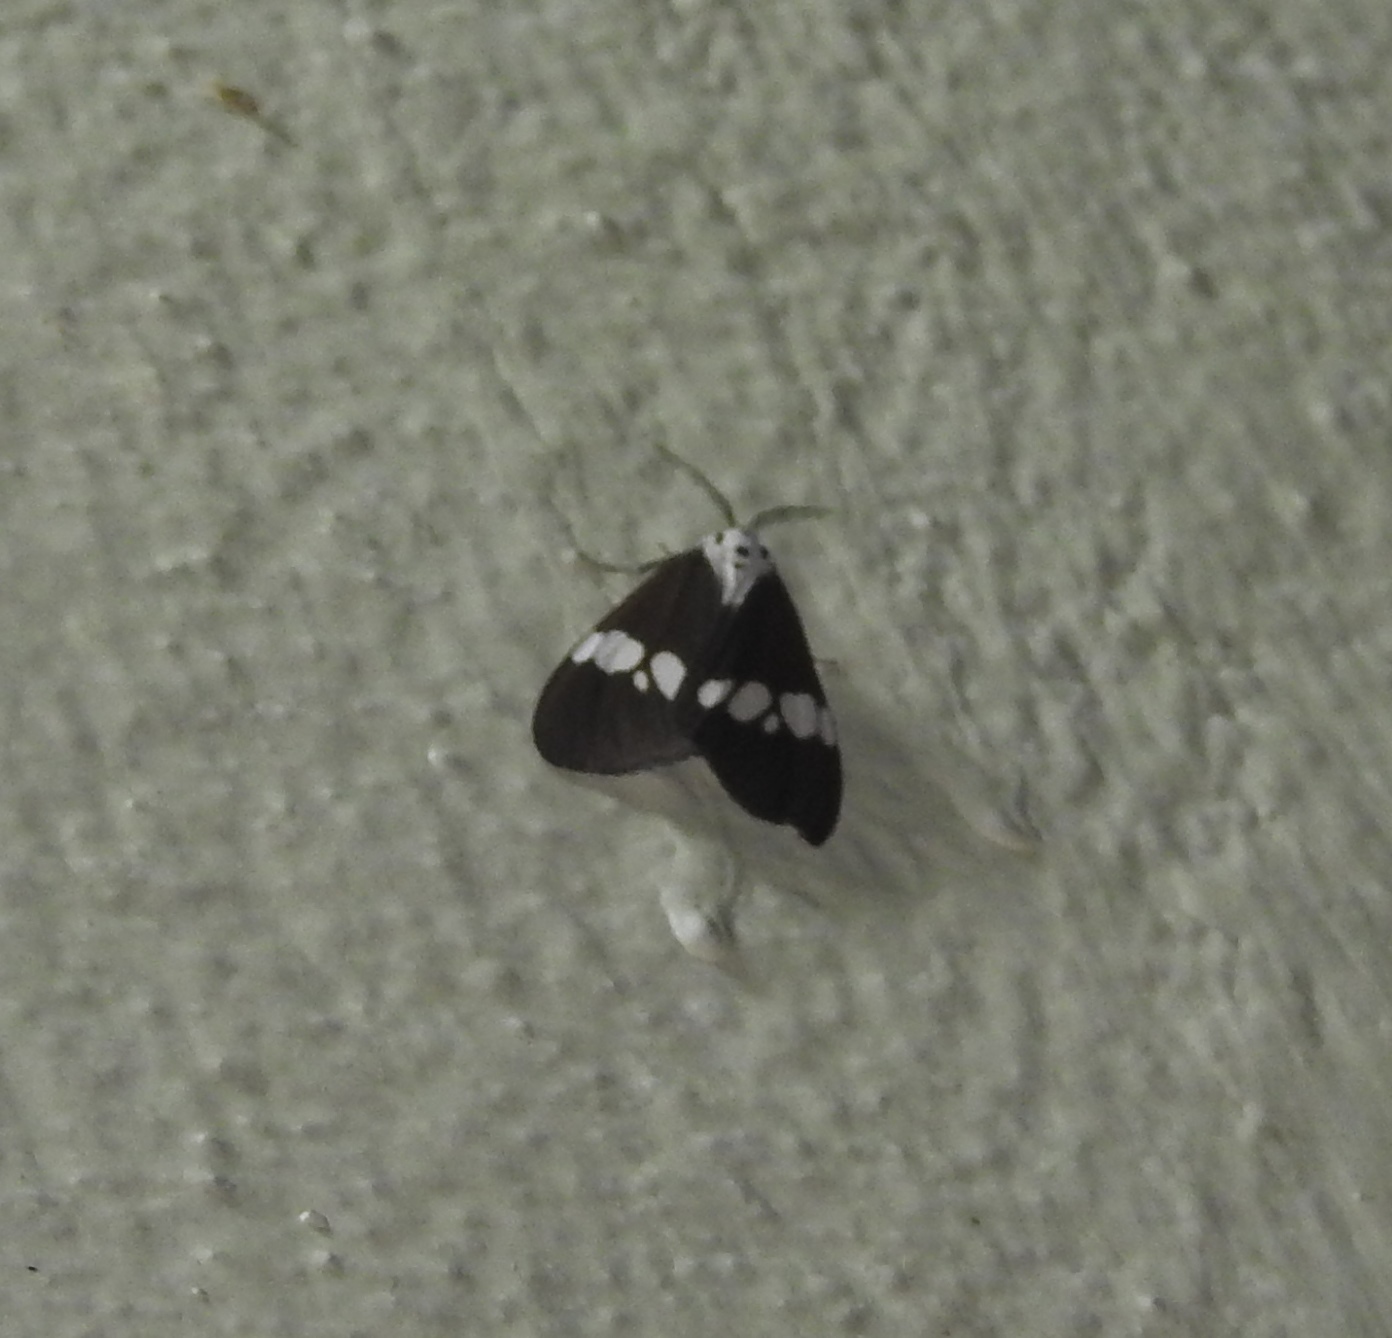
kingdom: Animalia
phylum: Arthropoda
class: Insecta
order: Lepidoptera
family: Erebidae
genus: Nyctemera
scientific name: Nyctemera lacticinia
